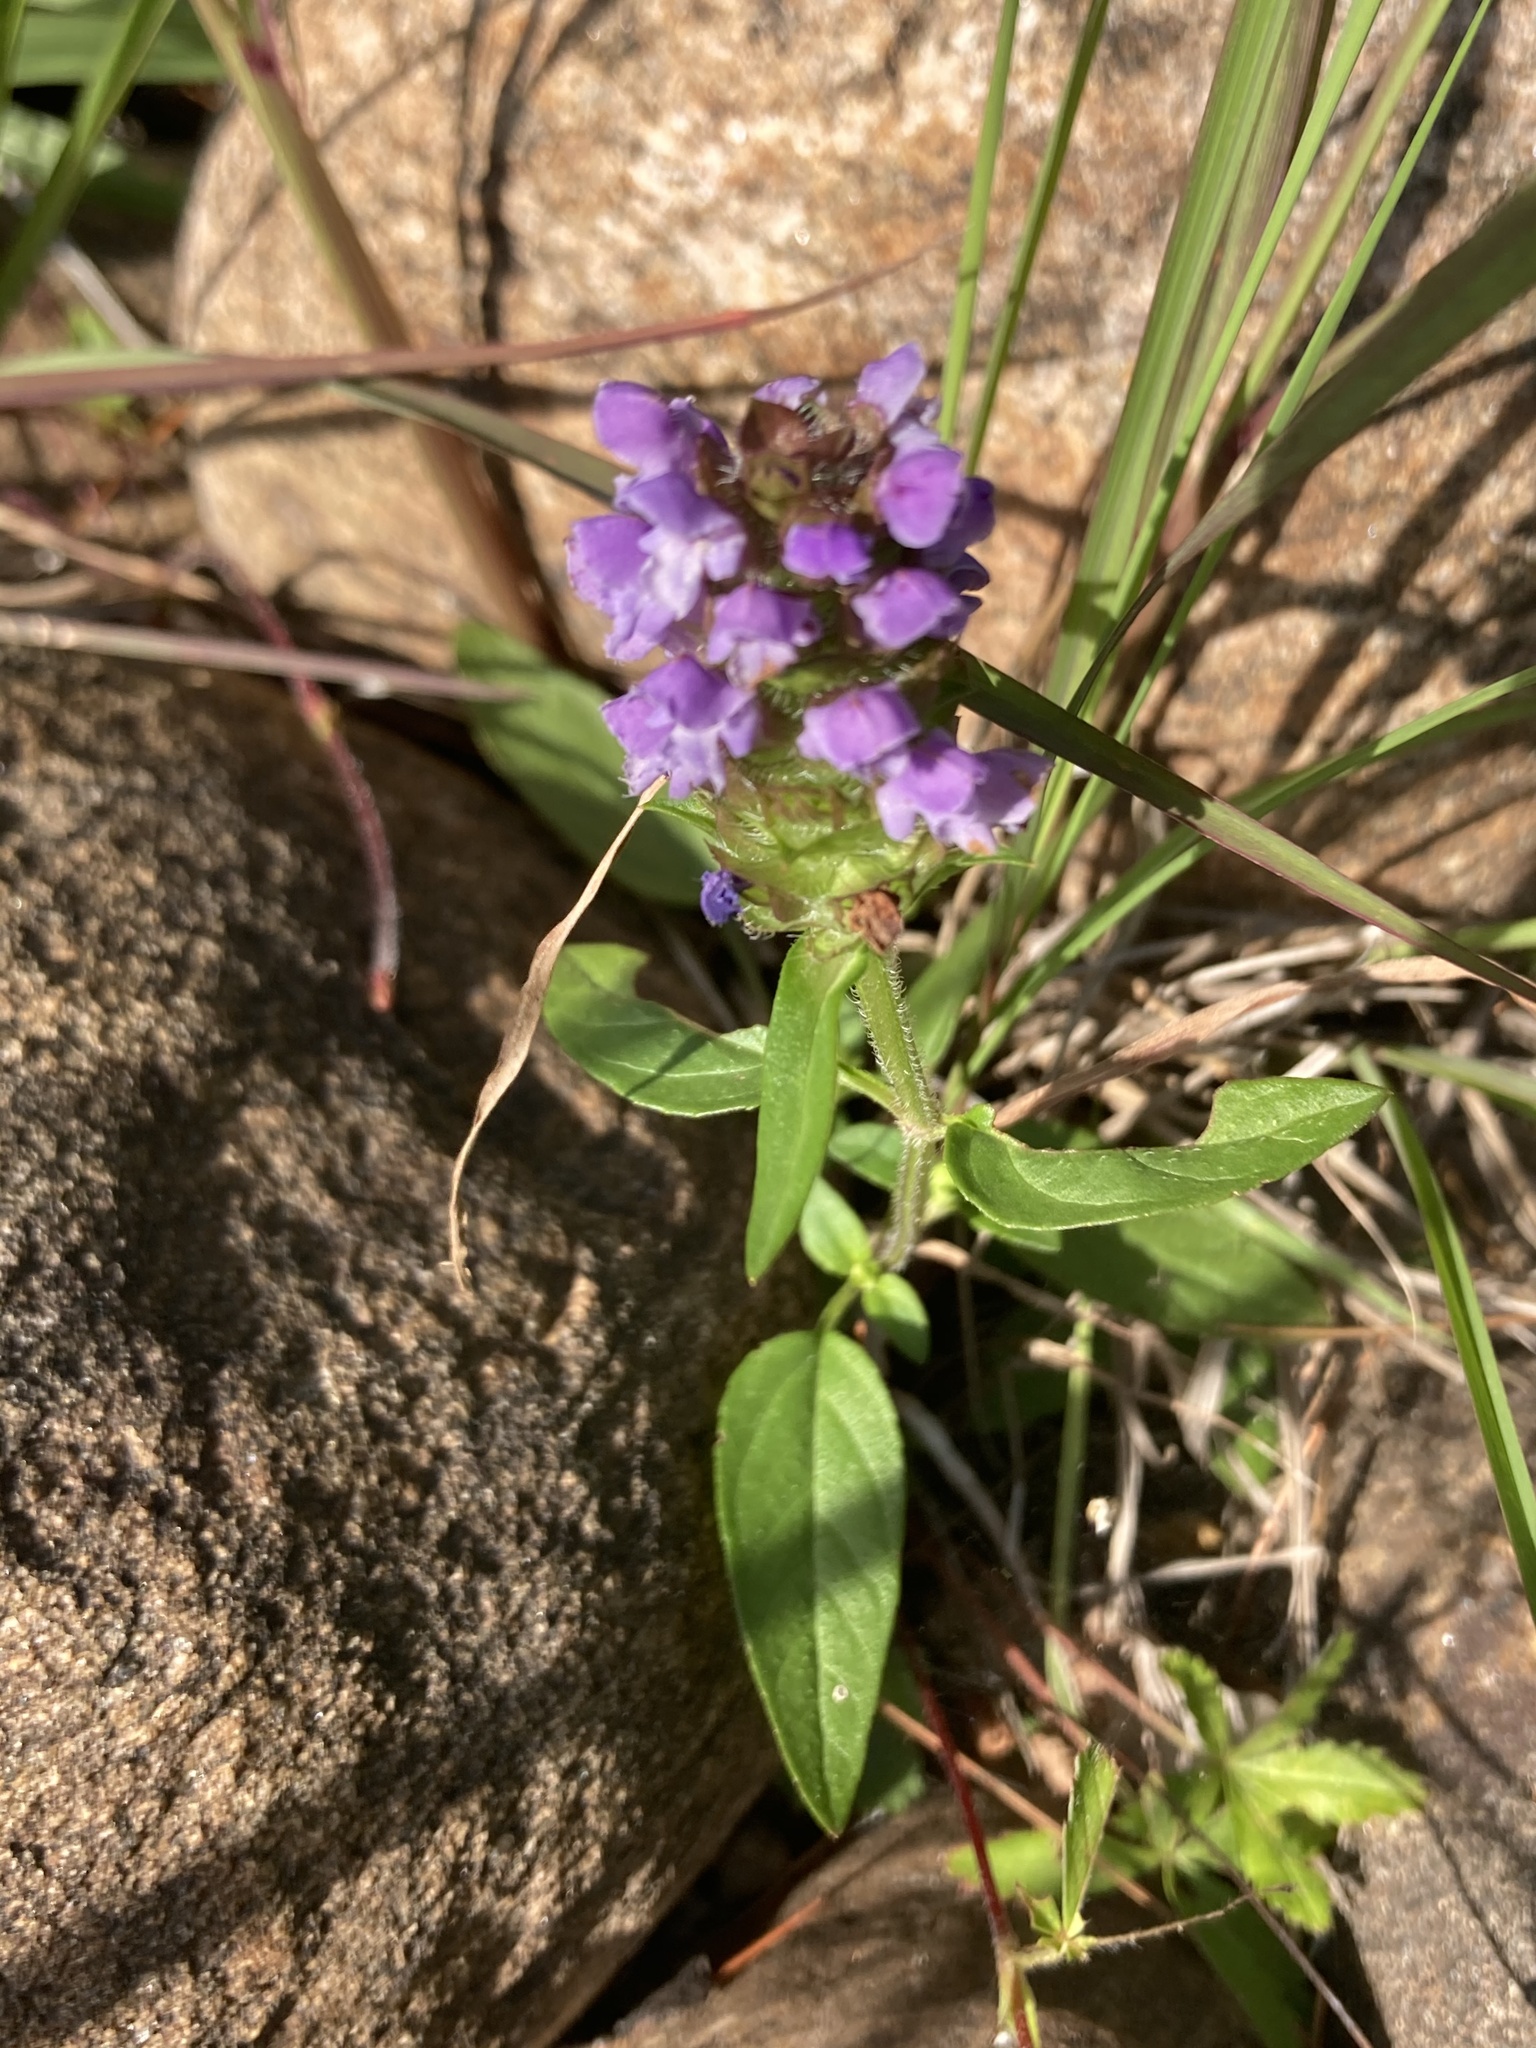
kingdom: Plantae
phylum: Tracheophyta
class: Magnoliopsida
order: Lamiales
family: Lamiaceae
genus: Prunella
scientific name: Prunella vulgaris
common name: Heal-all
